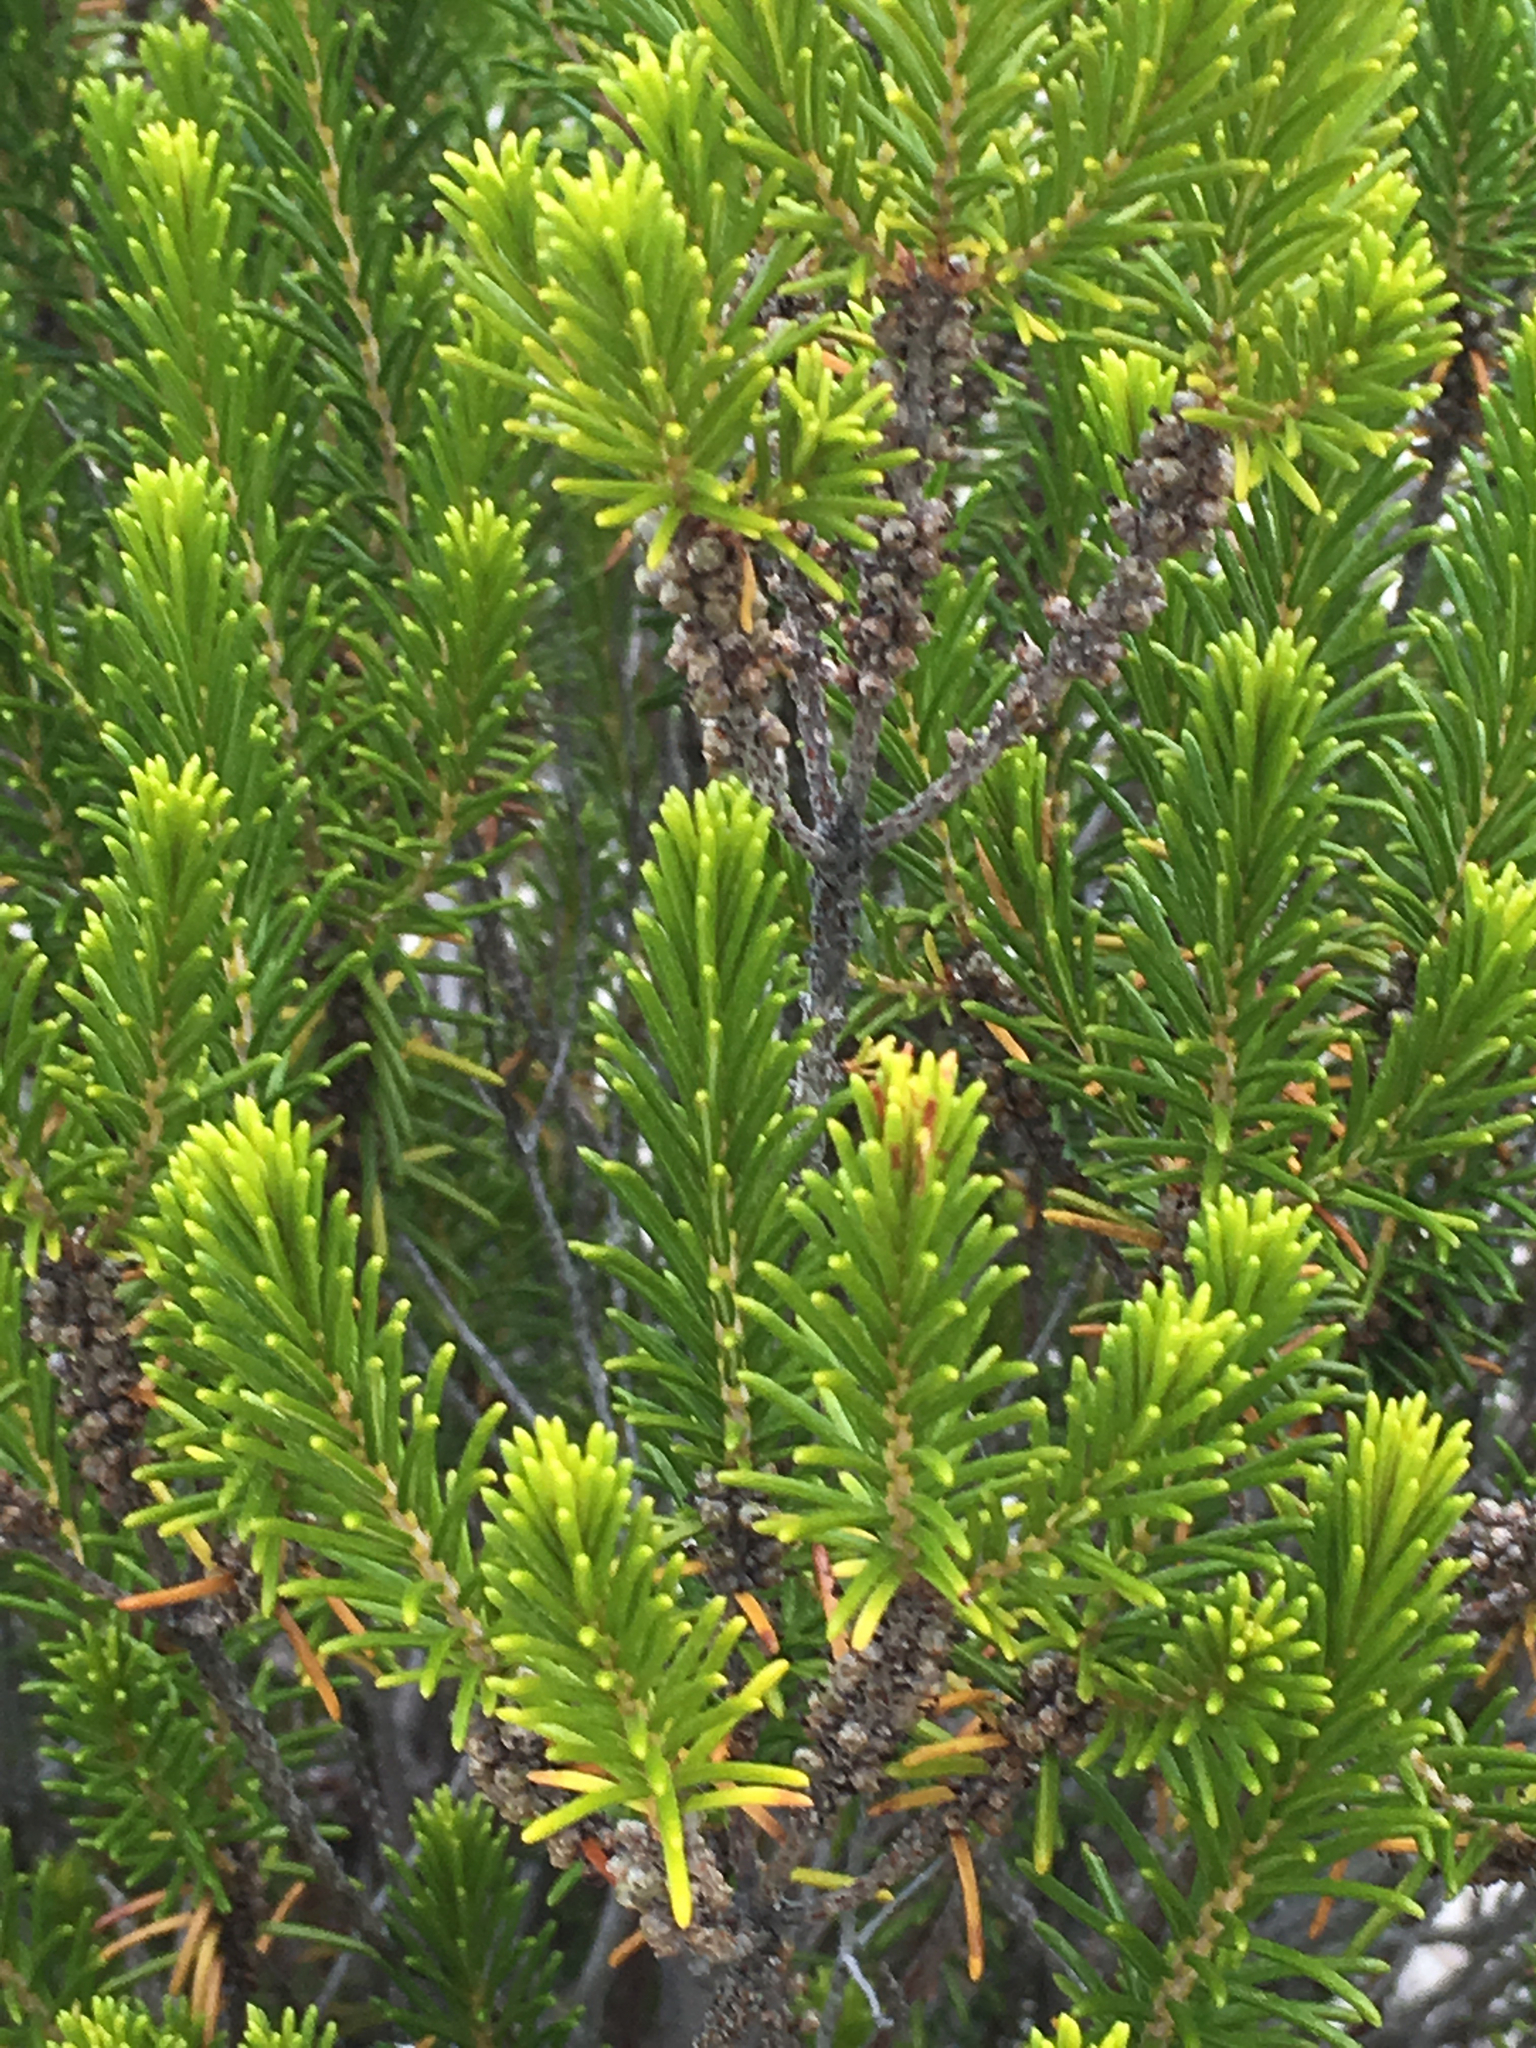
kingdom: Plantae
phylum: Tracheophyta
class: Magnoliopsida
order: Ericales
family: Ericaceae
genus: Ceratiola
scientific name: Ceratiola ericoides
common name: Sandhill-rosemary
